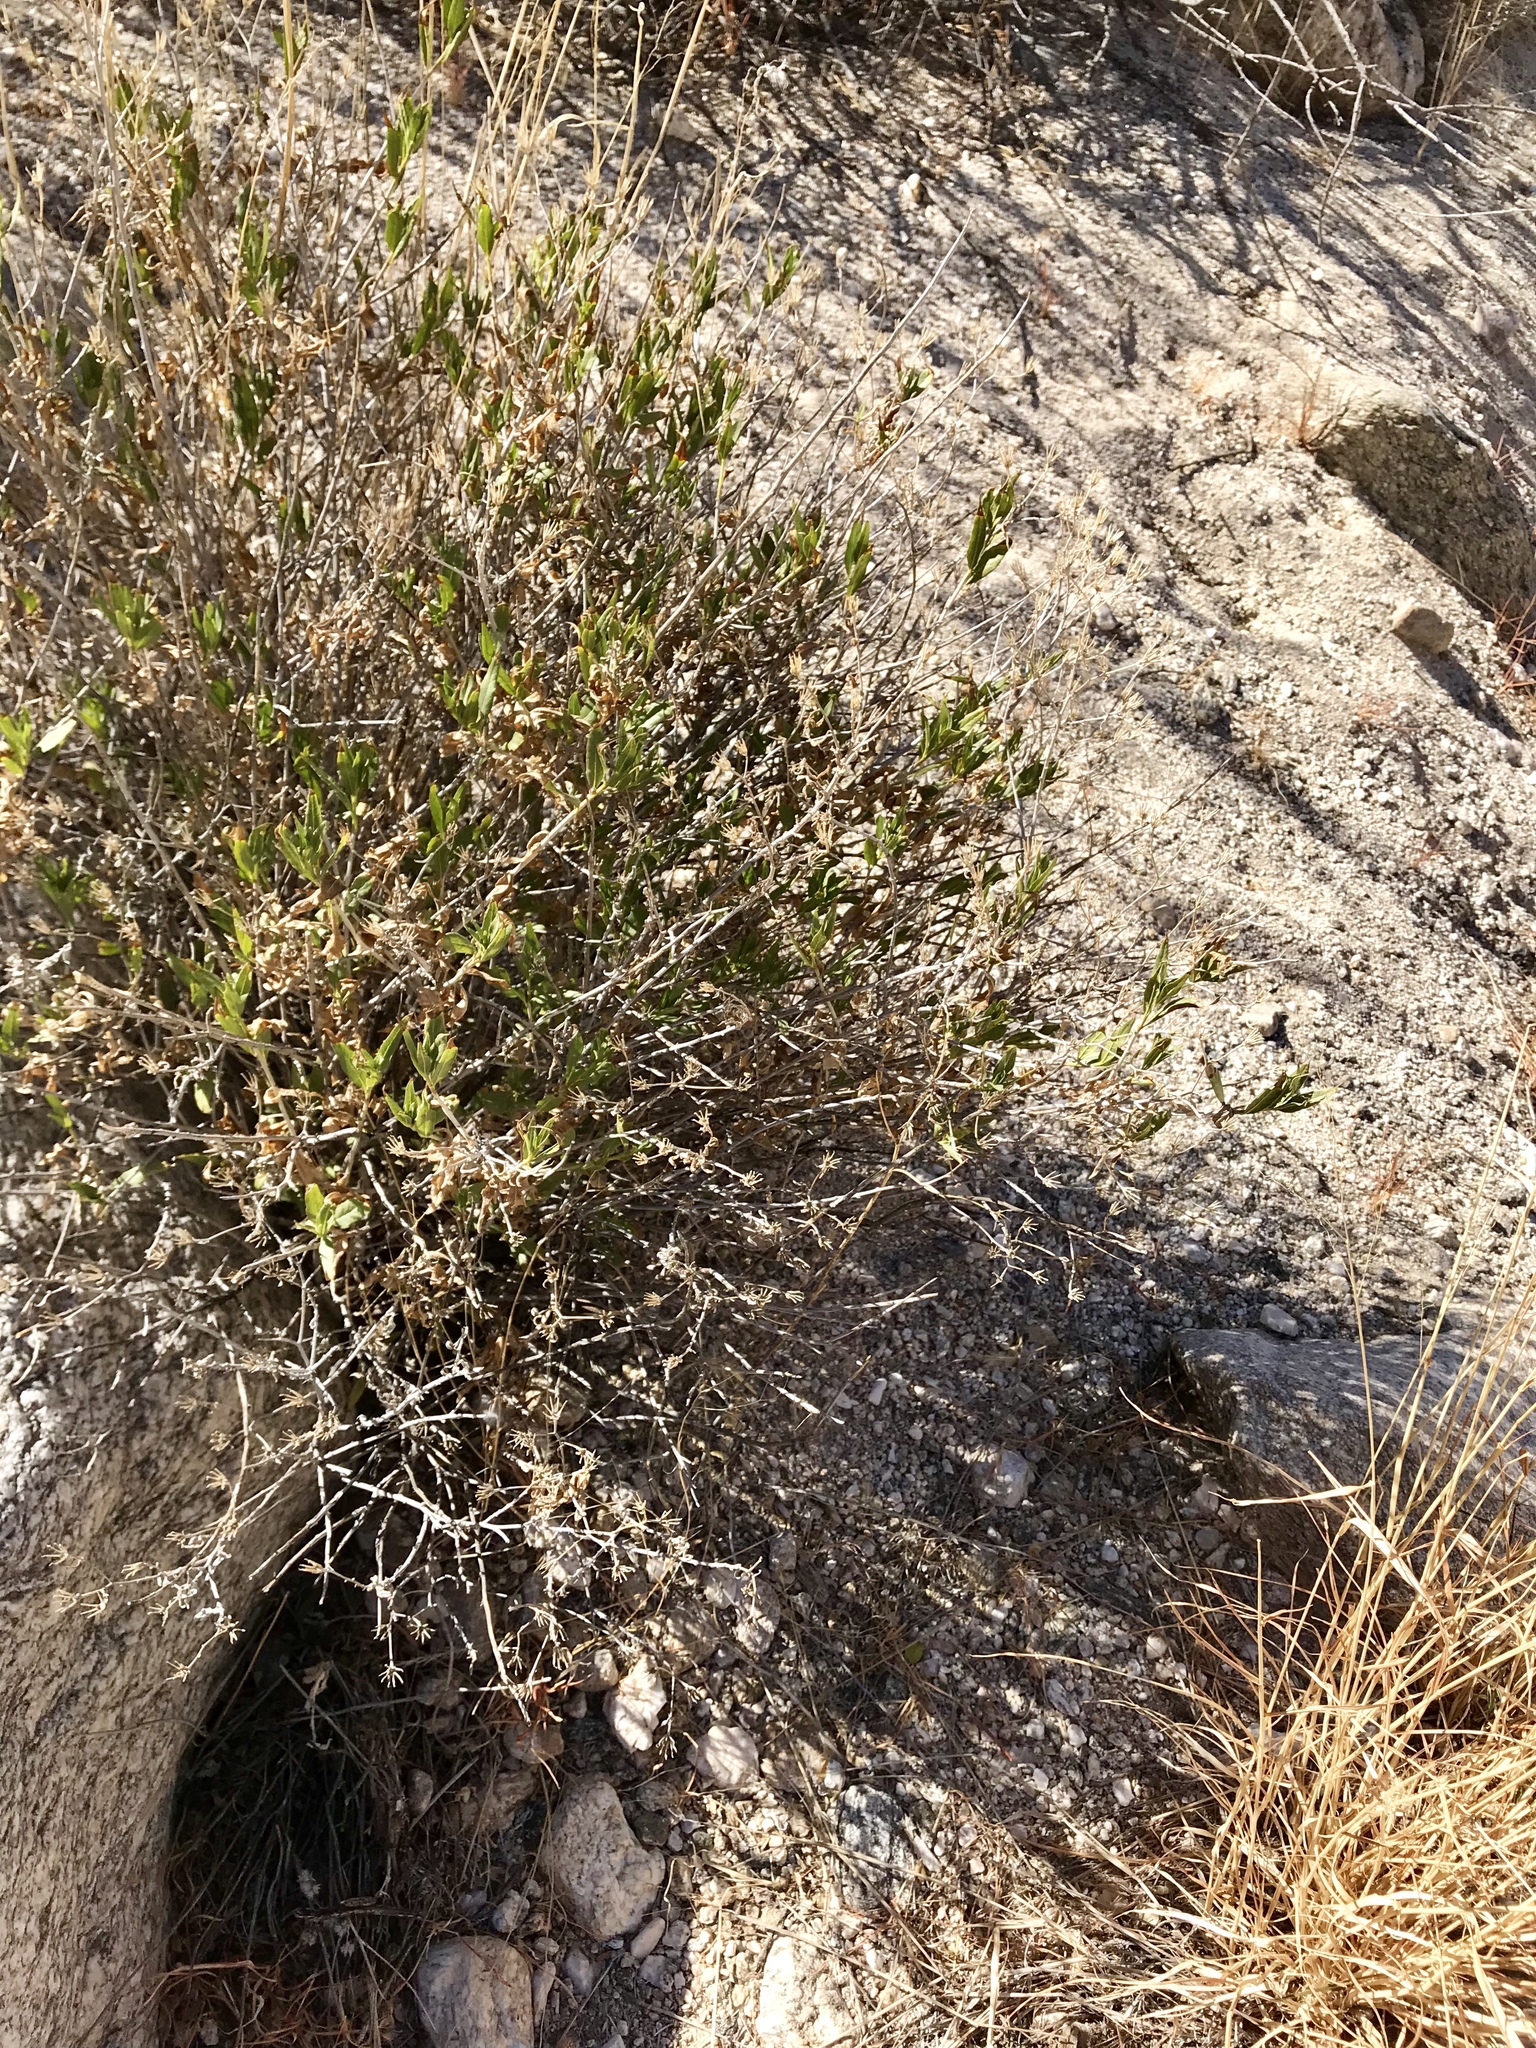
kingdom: Plantae
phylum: Tracheophyta
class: Magnoliopsida
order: Asterales
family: Asteraceae
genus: Trixis
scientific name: Trixis californica
